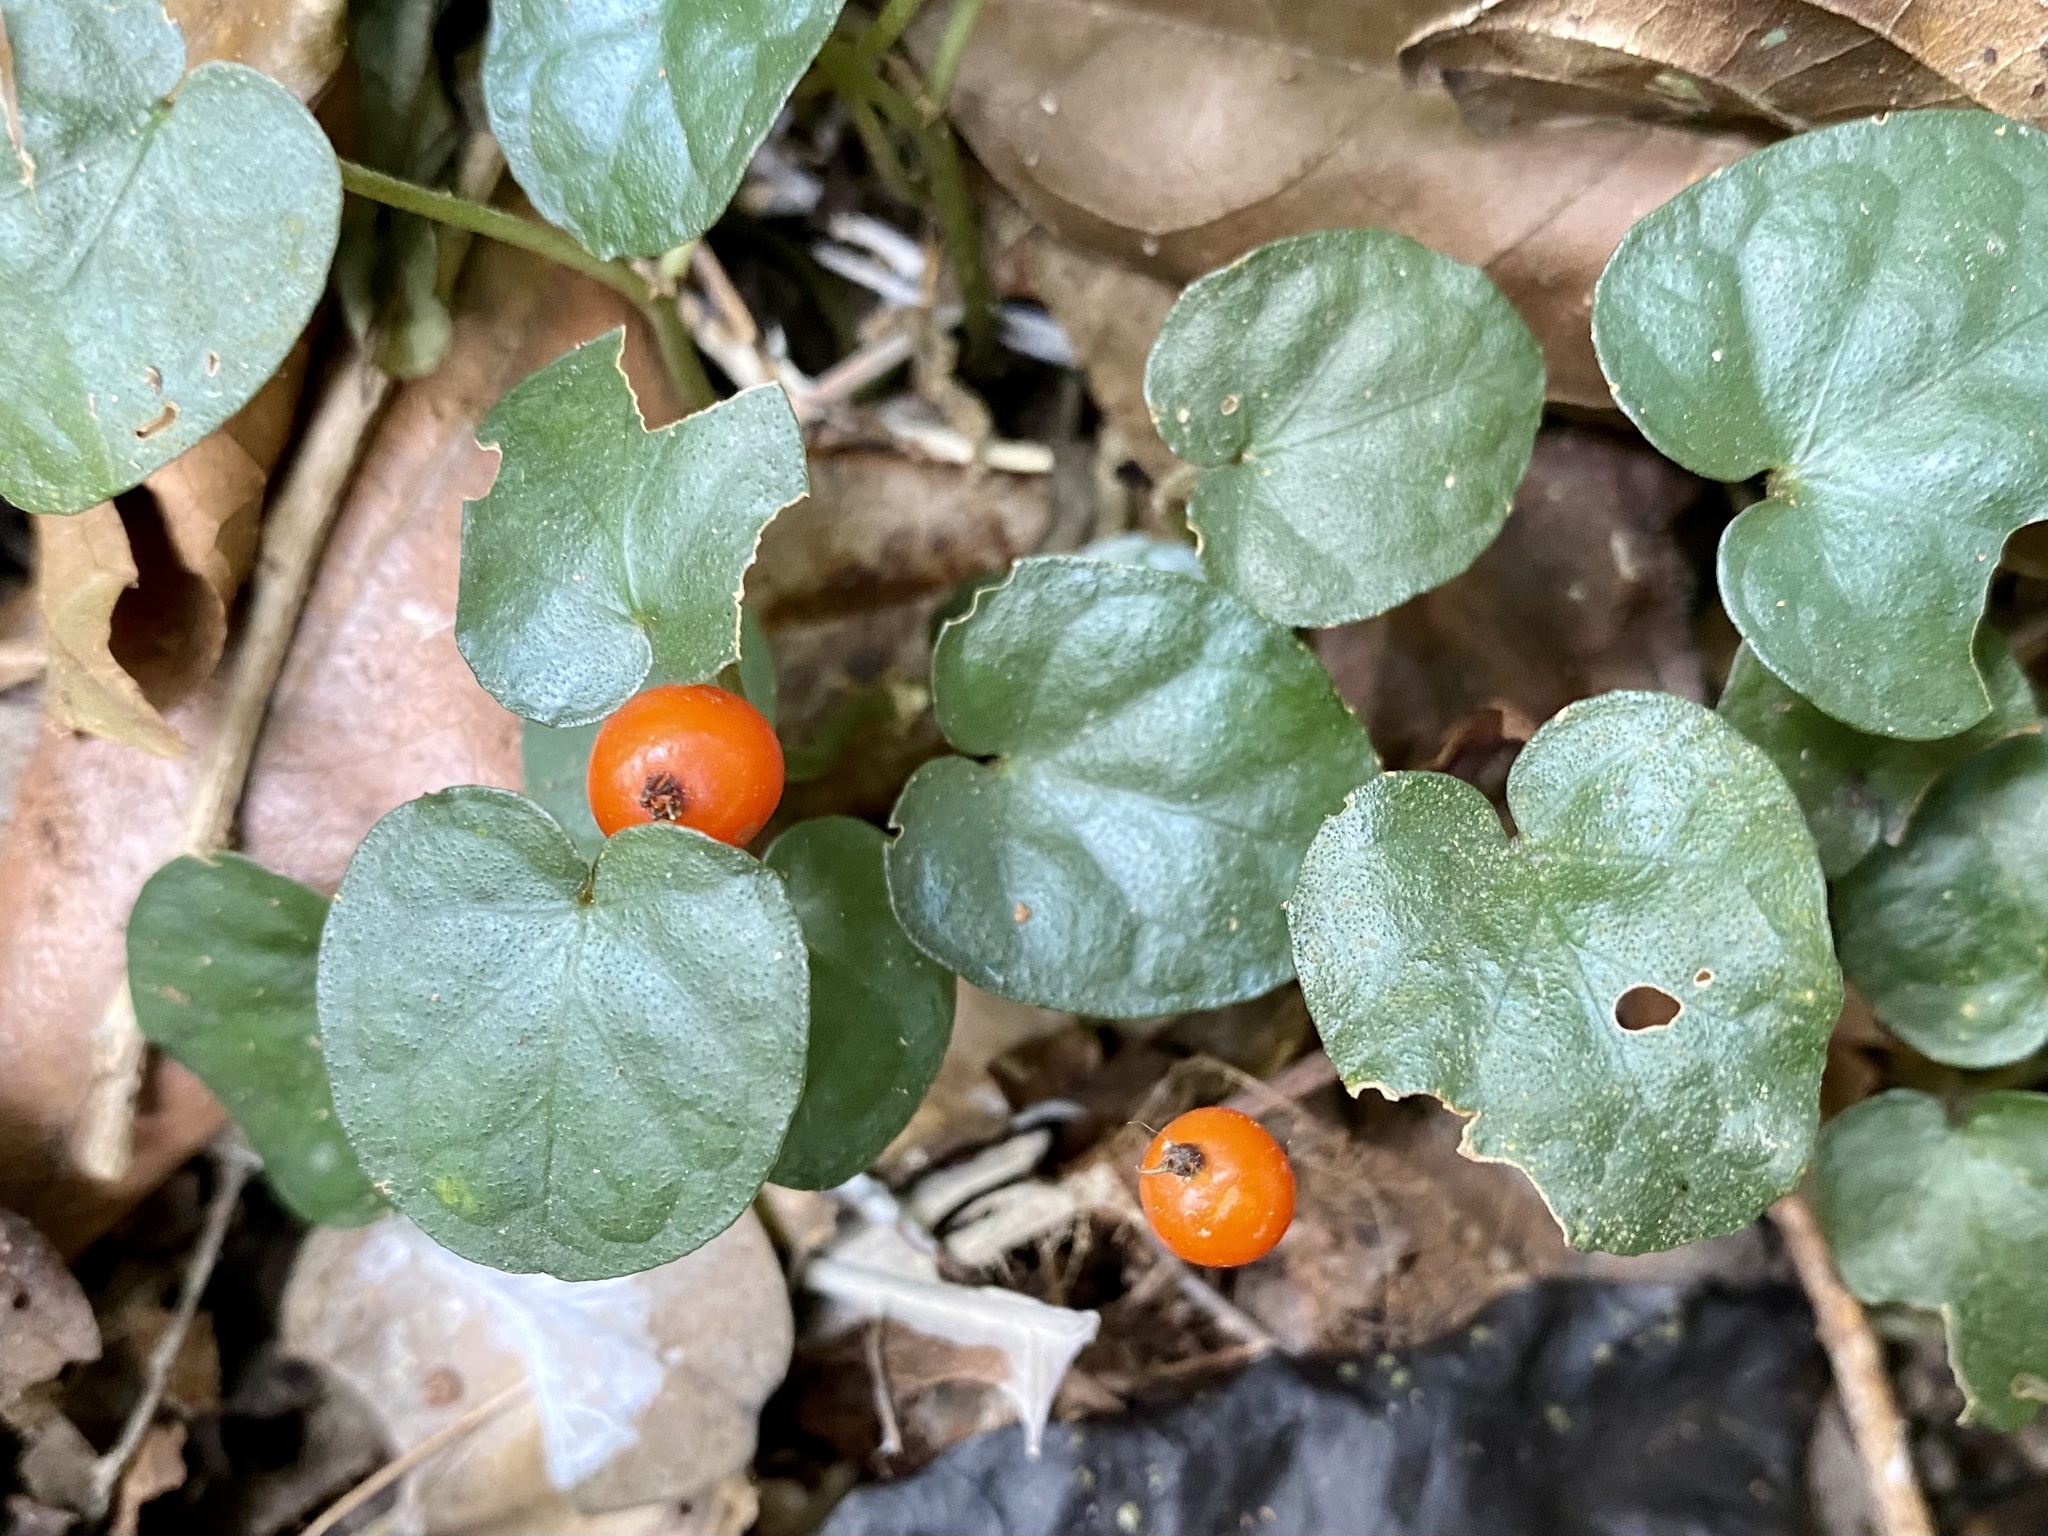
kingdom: Plantae
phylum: Tracheophyta
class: Magnoliopsida
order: Gentianales
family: Rubiaceae
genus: Geophila
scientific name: Geophila herbacea
